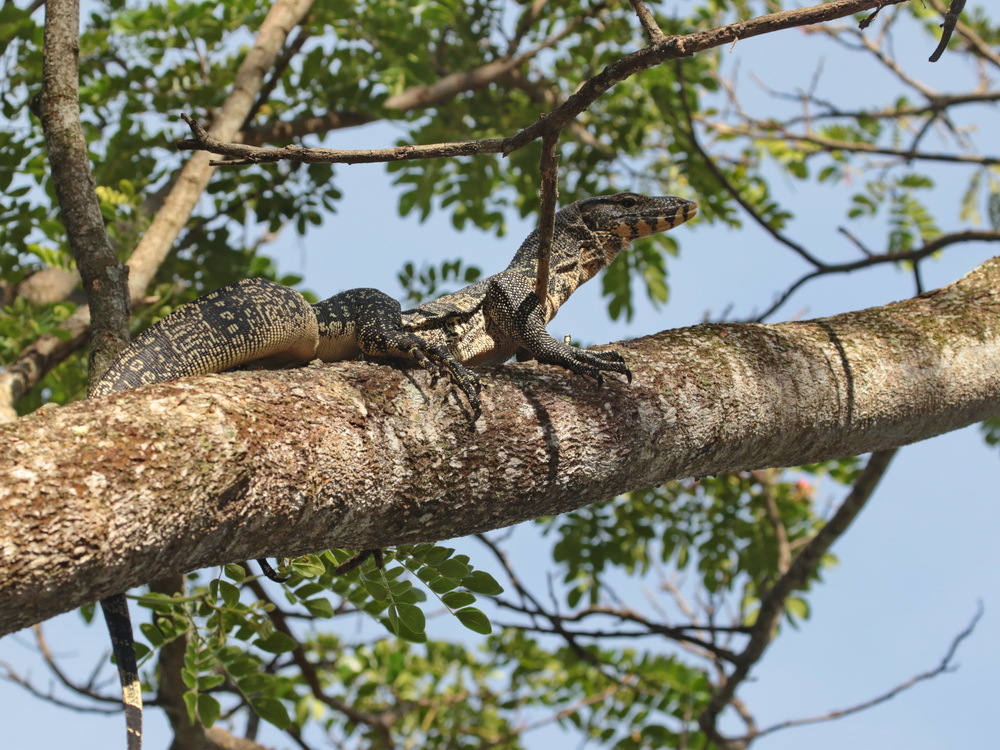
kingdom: Animalia
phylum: Chordata
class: Squamata
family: Varanidae
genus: Varanus
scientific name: Varanus salvator
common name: Common water monitor
